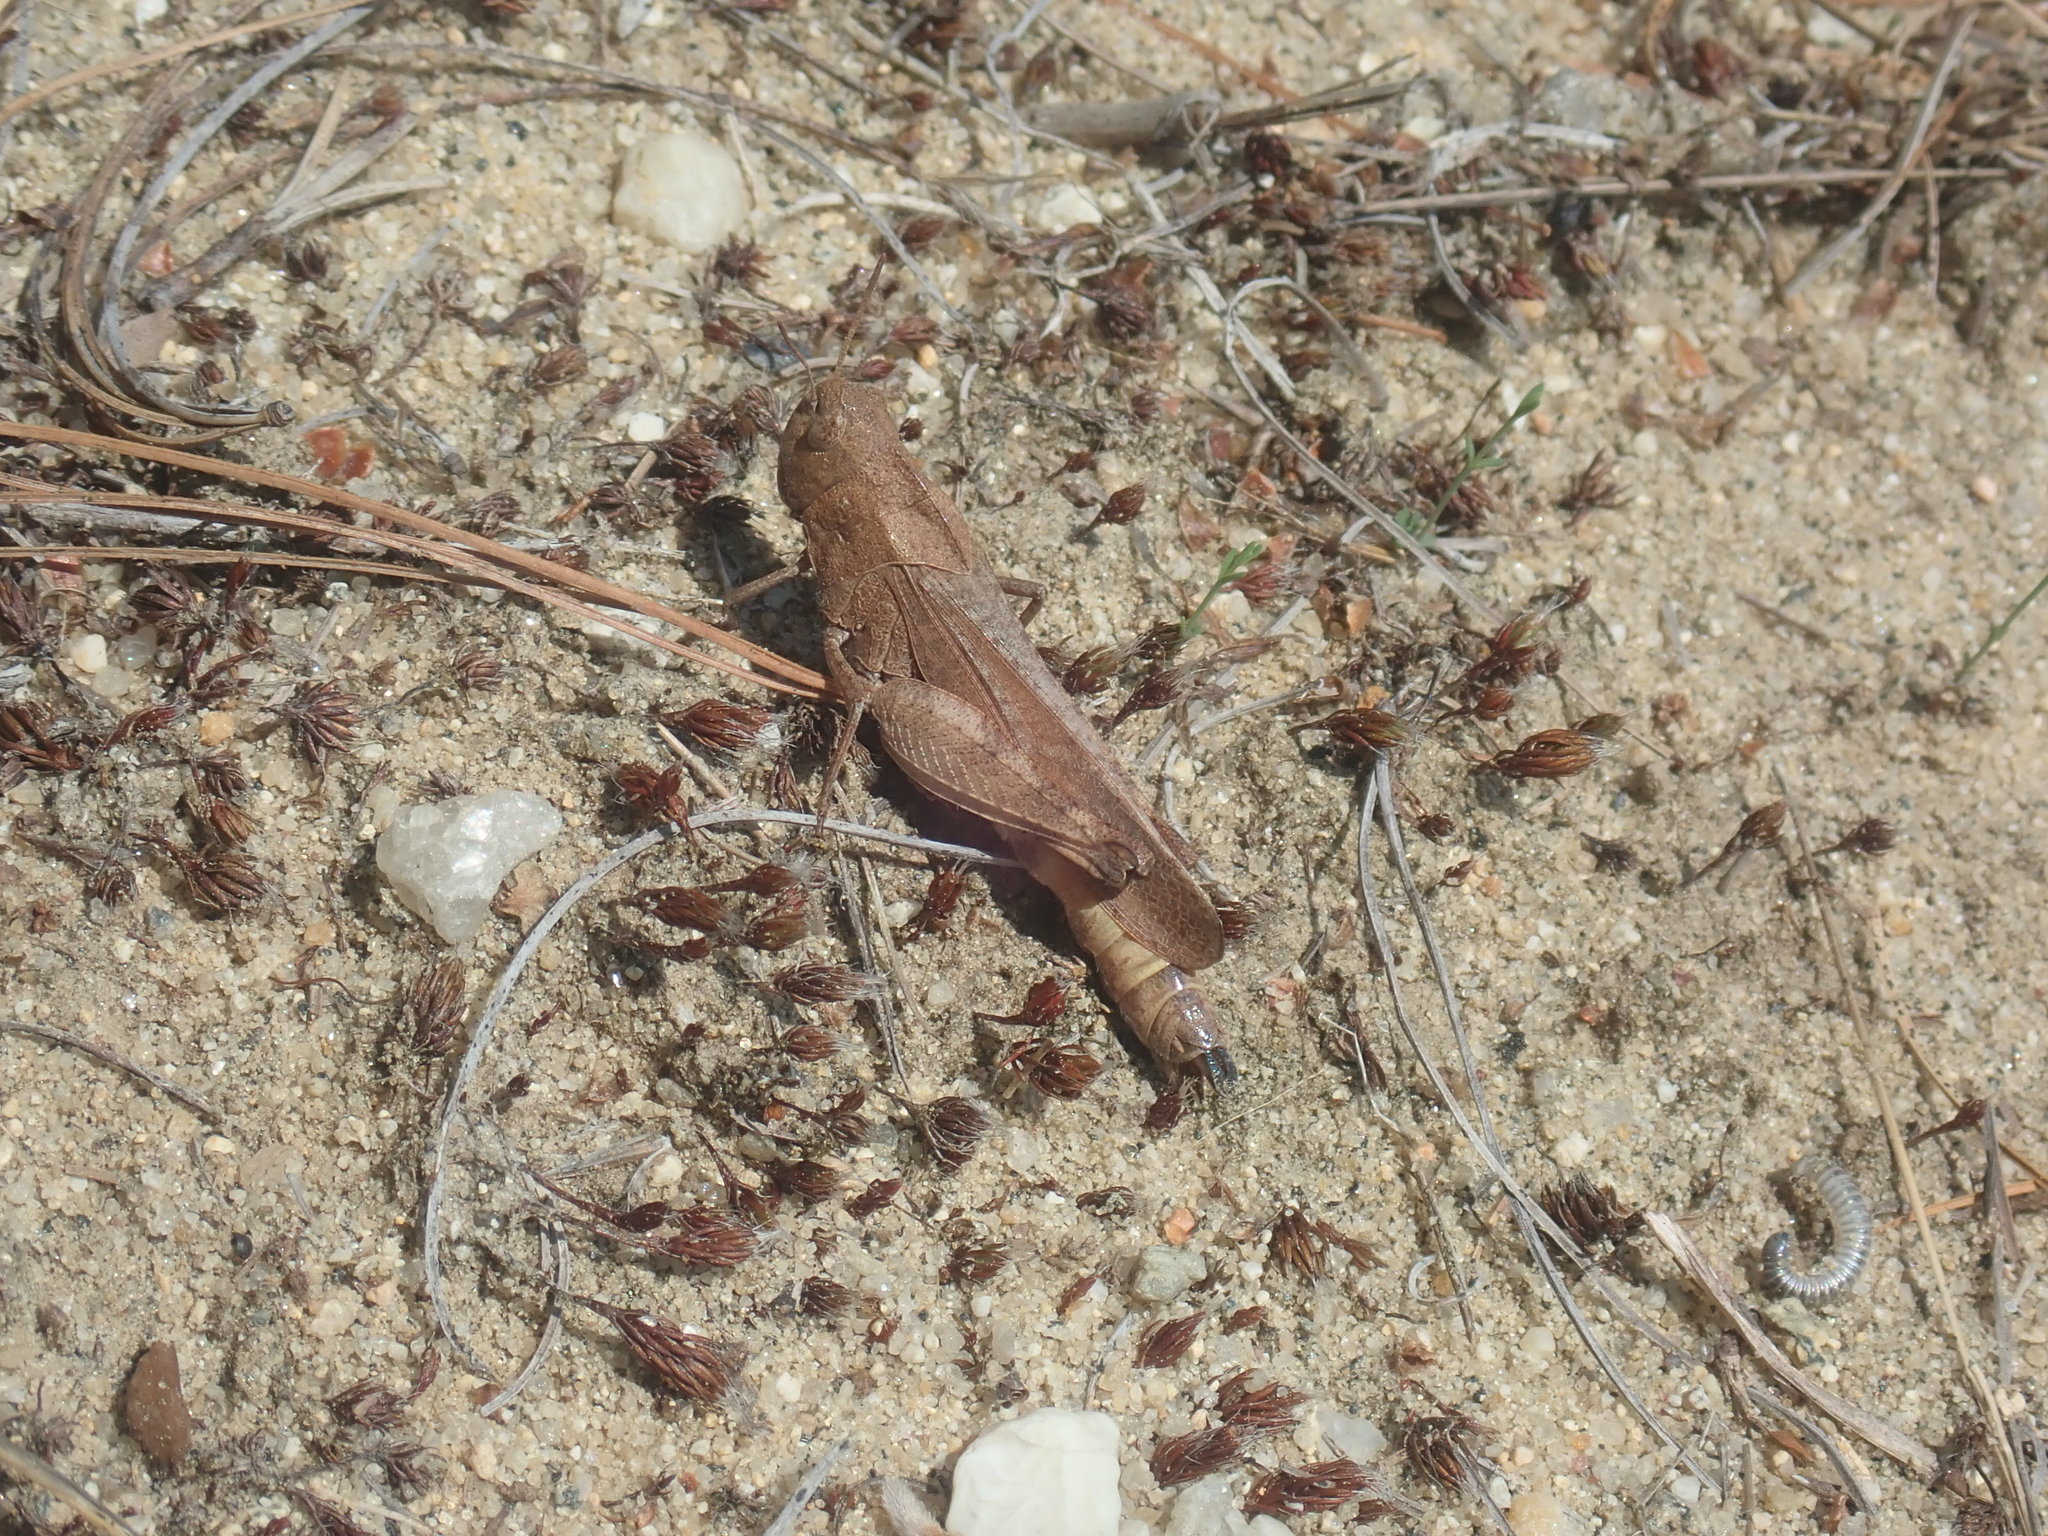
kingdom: Animalia
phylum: Arthropoda
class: Insecta
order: Orthoptera
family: Acrididae
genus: Arphia
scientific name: Arphia sulphurea
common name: Spring yellow-winged locust
